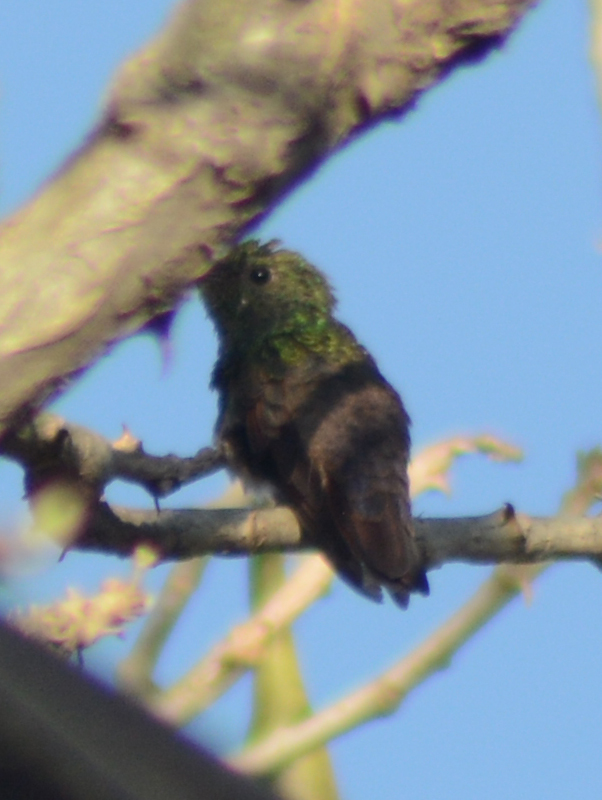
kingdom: Animalia
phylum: Chordata
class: Aves
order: Apodiformes
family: Trochilidae
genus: Saucerottia
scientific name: Saucerottia beryllina
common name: Berylline hummingbird
